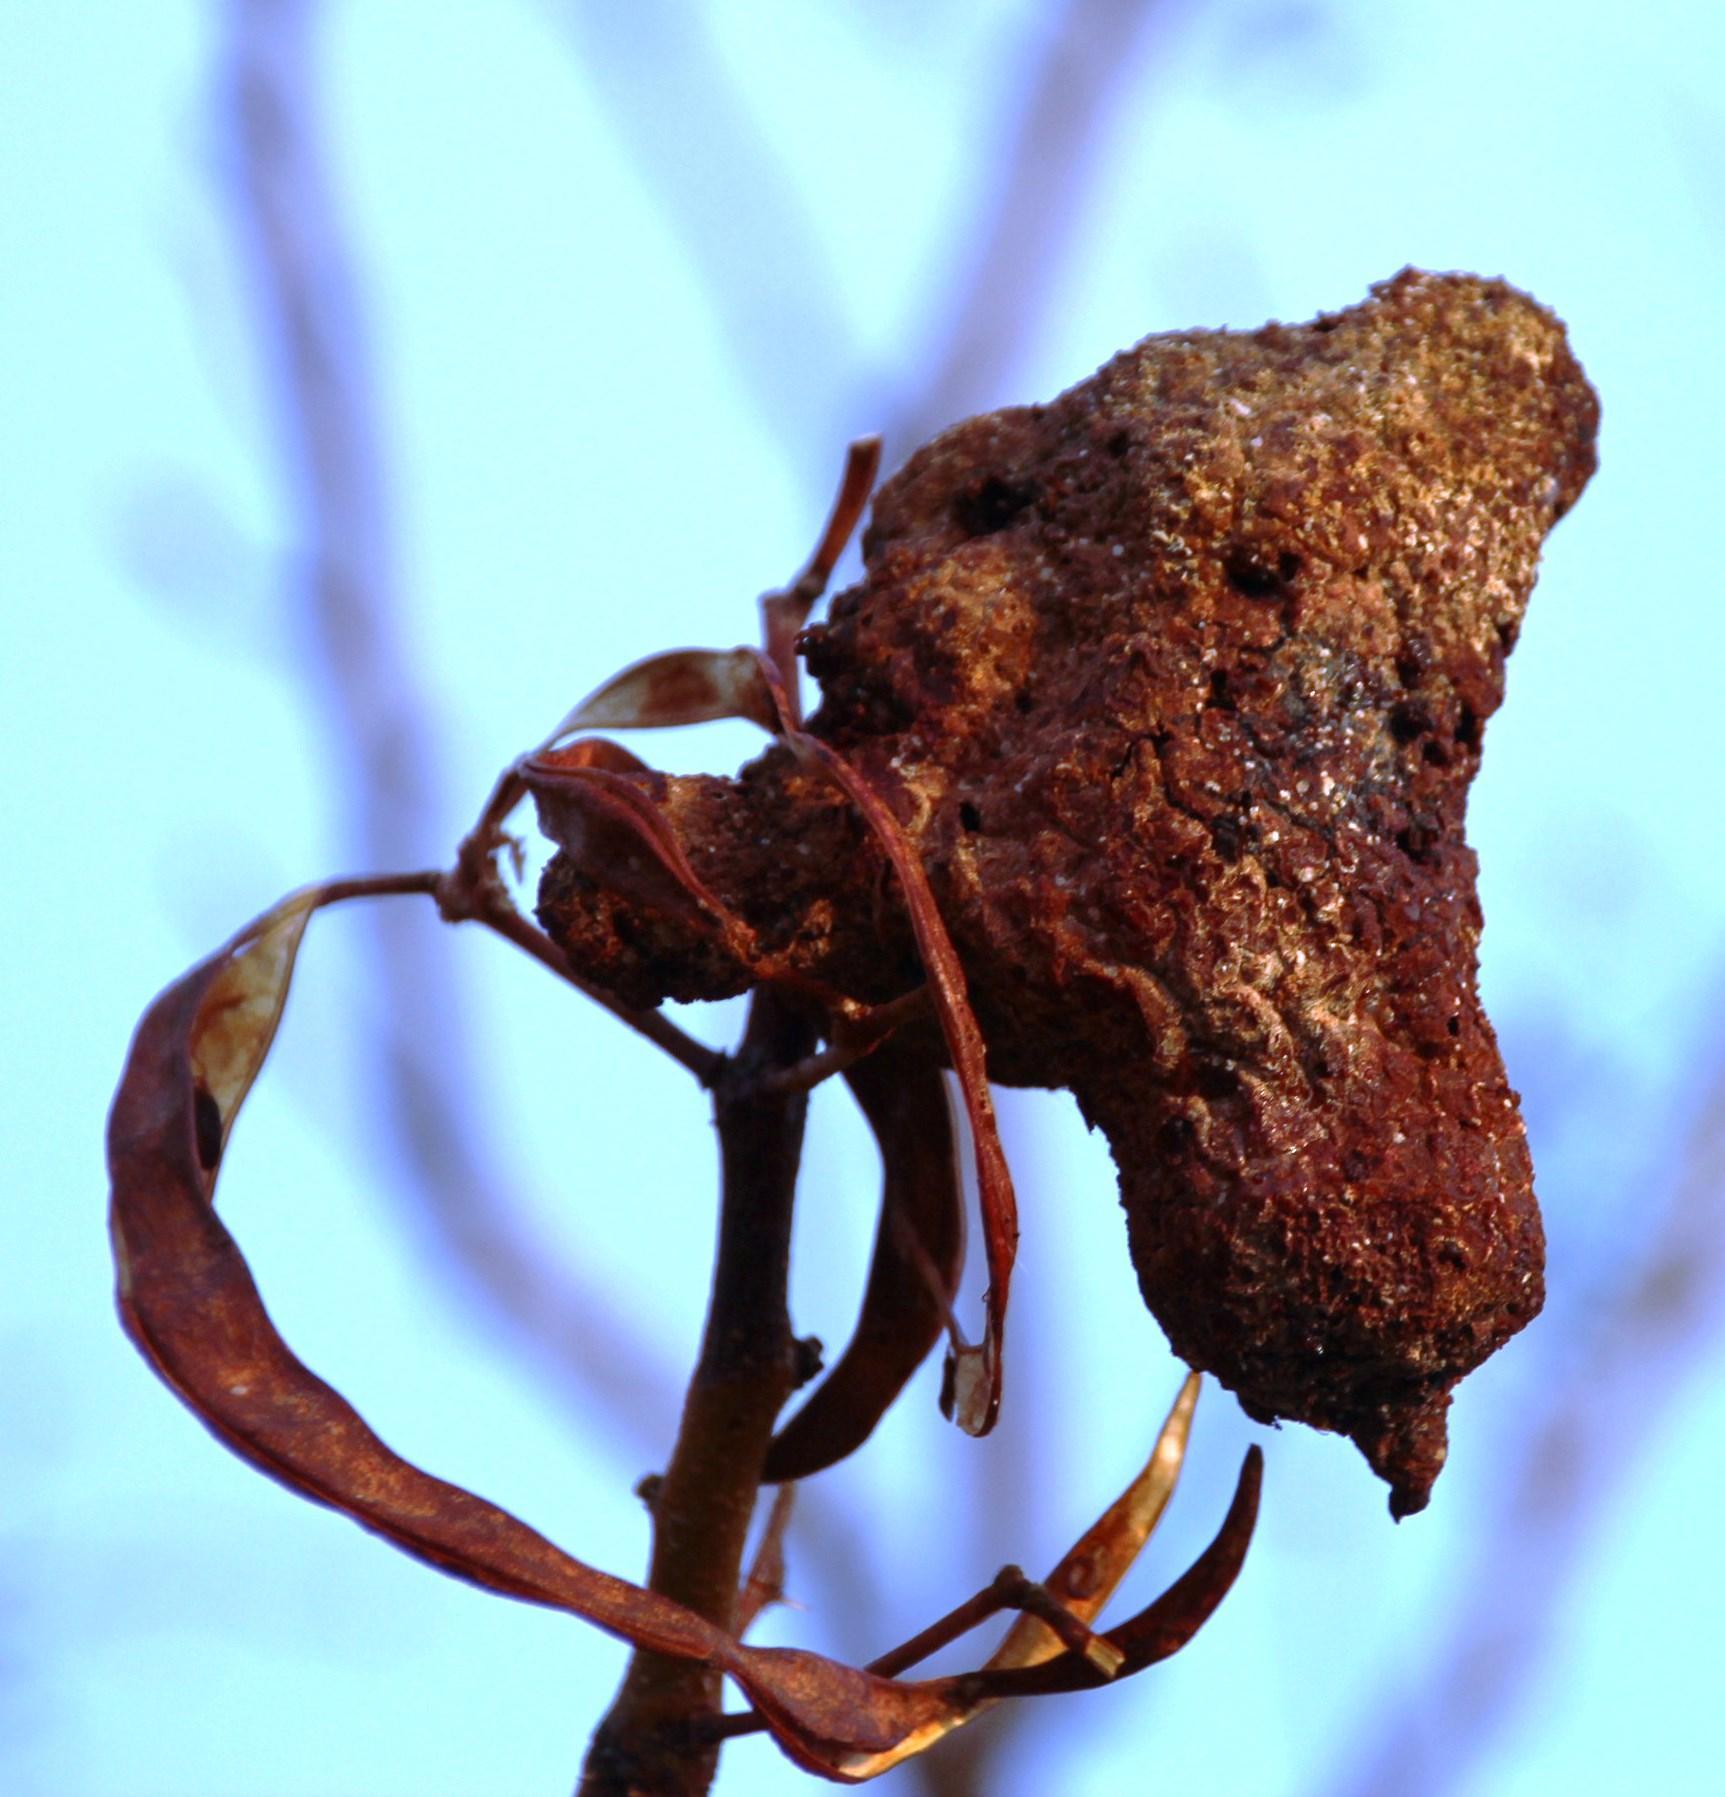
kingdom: Fungi
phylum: Basidiomycota
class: Pucciniomycetes
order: Pucciniales
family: Raveneliaceae
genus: Cephalotelium
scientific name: Cephalotelium macowanianum
